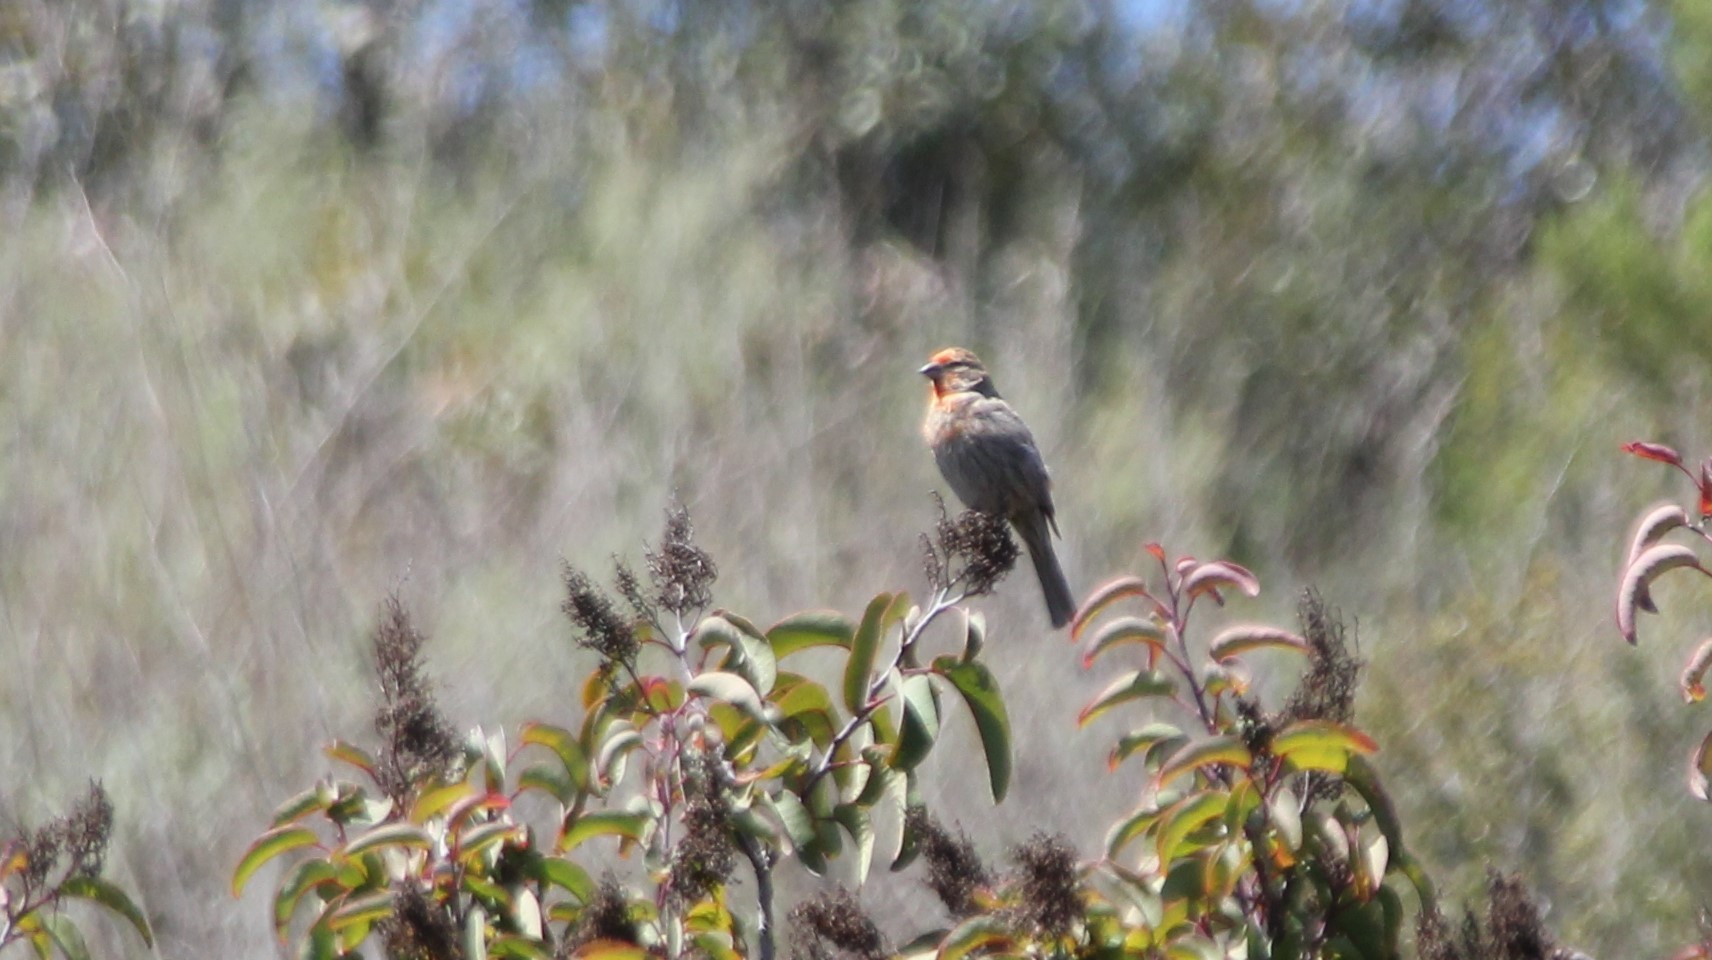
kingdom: Animalia
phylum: Chordata
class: Aves
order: Passeriformes
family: Fringillidae
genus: Haemorhous
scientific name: Haemorhous mexicanus
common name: House finch
